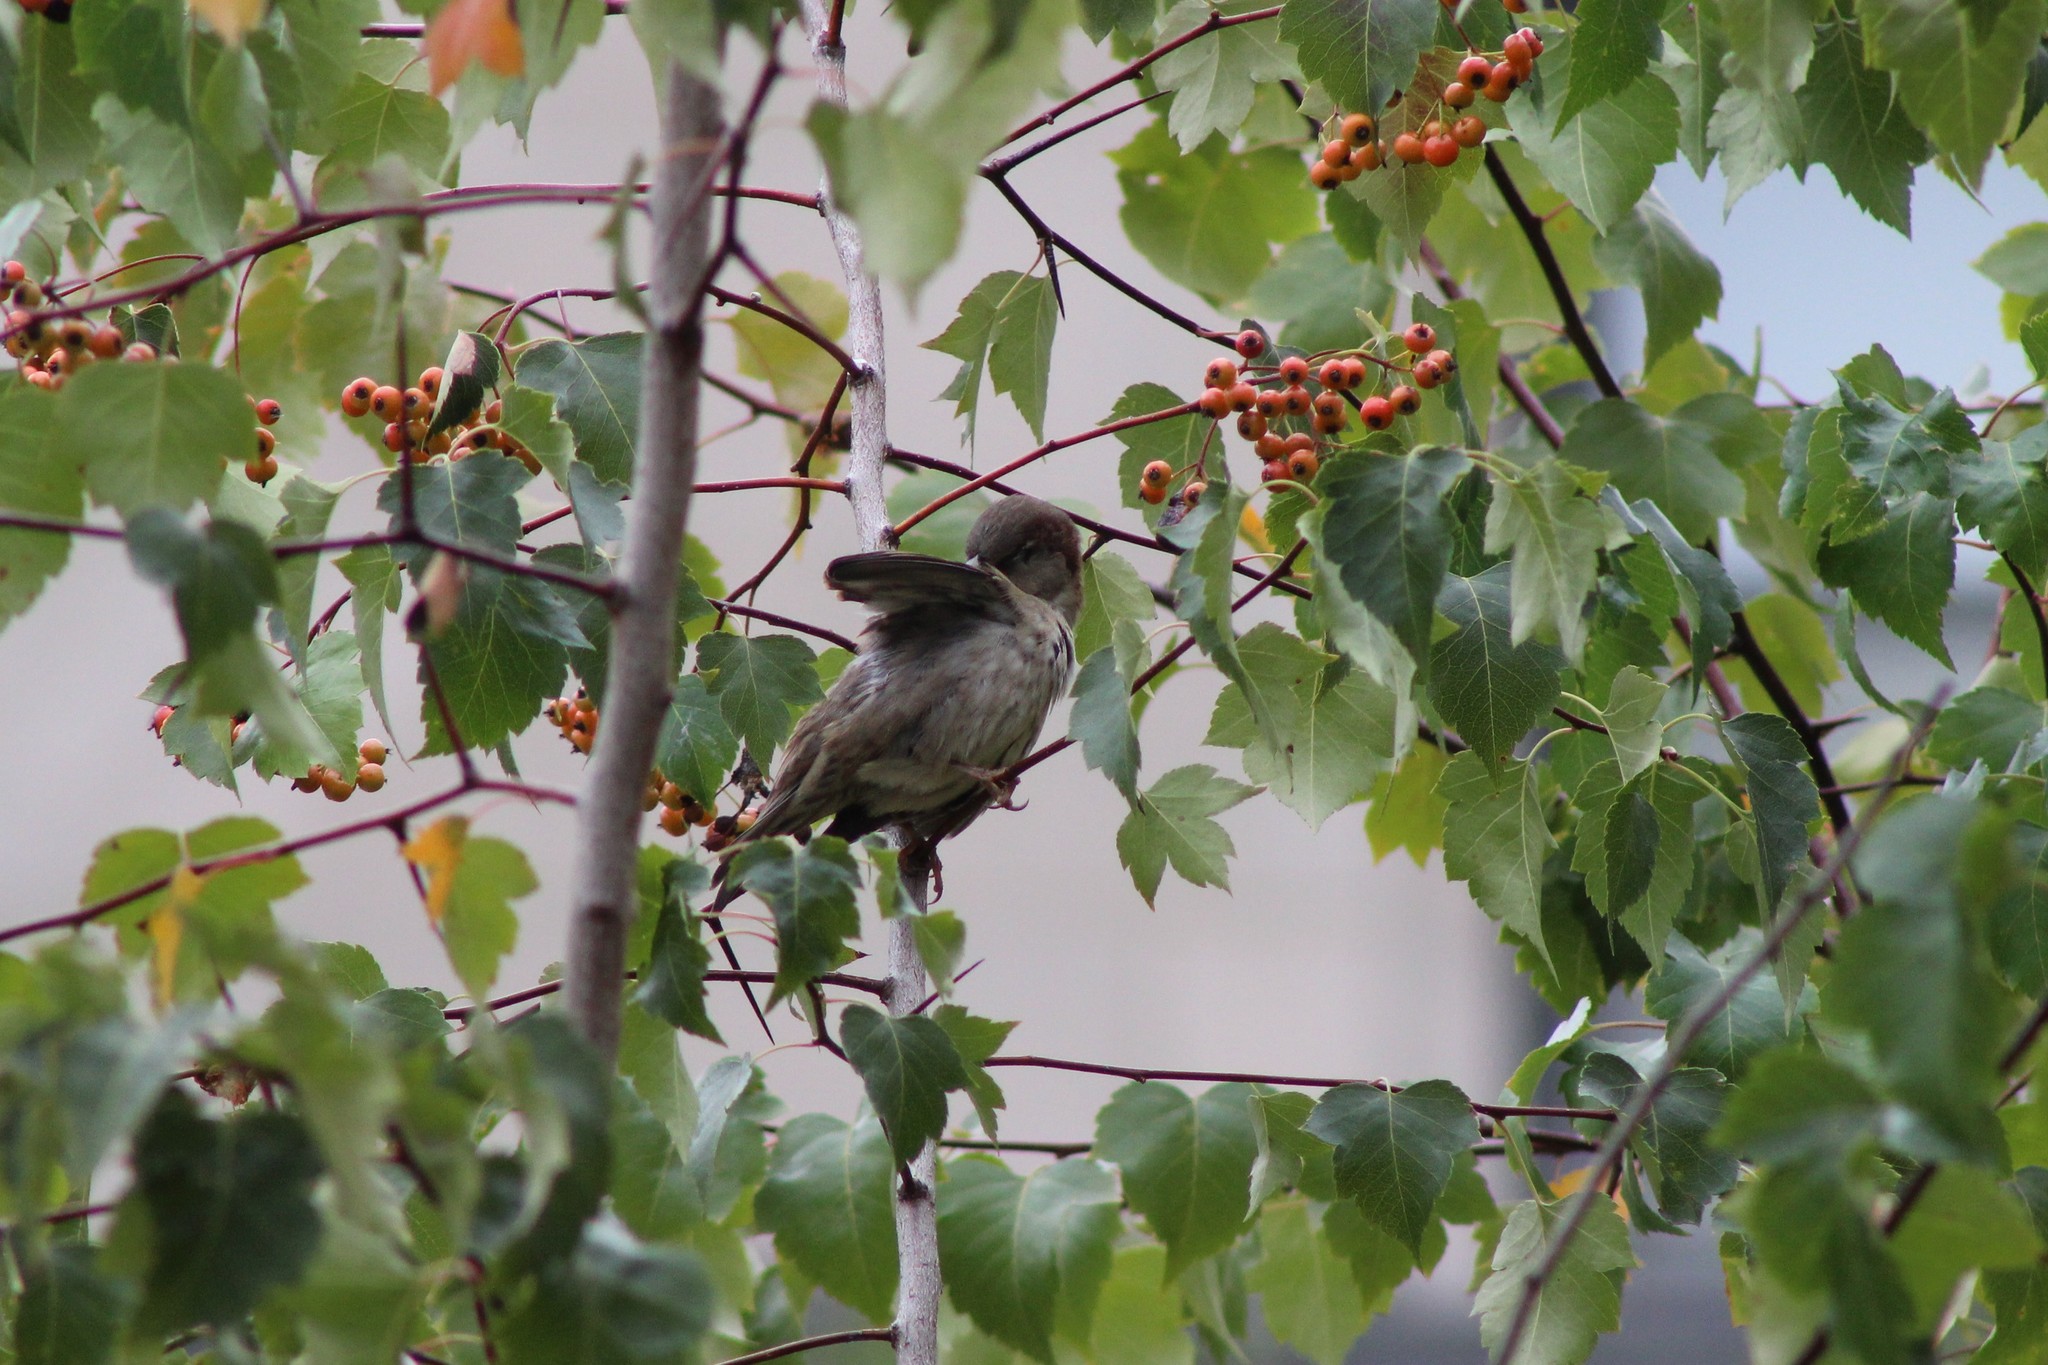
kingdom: Animalia
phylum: Chordata
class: Aves
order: Passeriformes
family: Passeridae
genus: Passer
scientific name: Passer domesticus
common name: House sparrow
